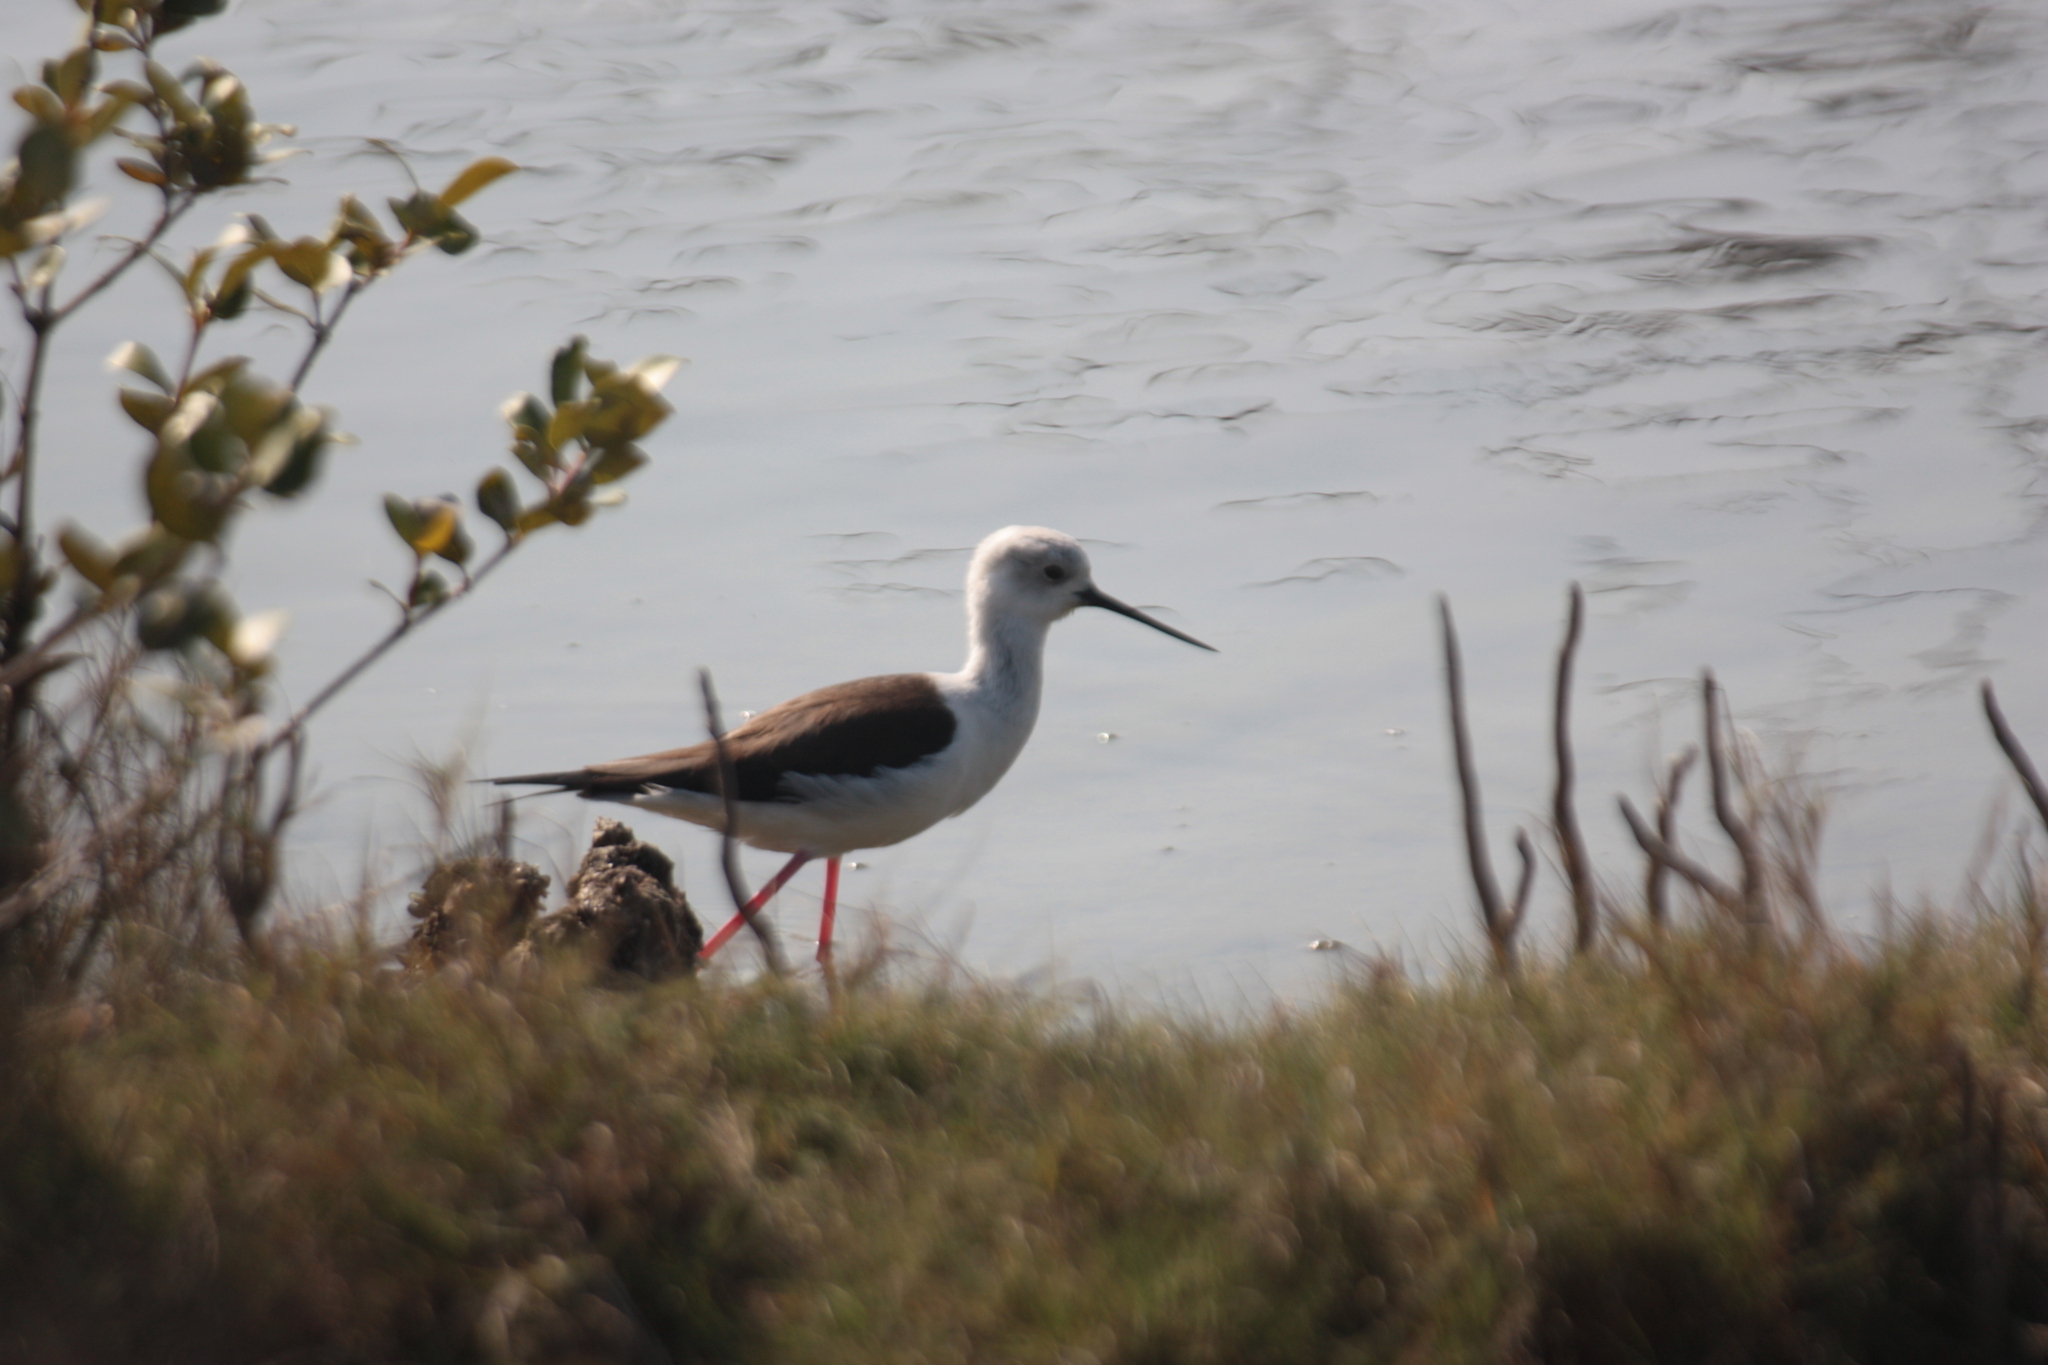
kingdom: Animalia
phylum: Chordata
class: Aves
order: Charadriiformes
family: Recurvirostridae
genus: Himantopus
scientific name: Himantopus himantopus
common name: Black-winged stilt
